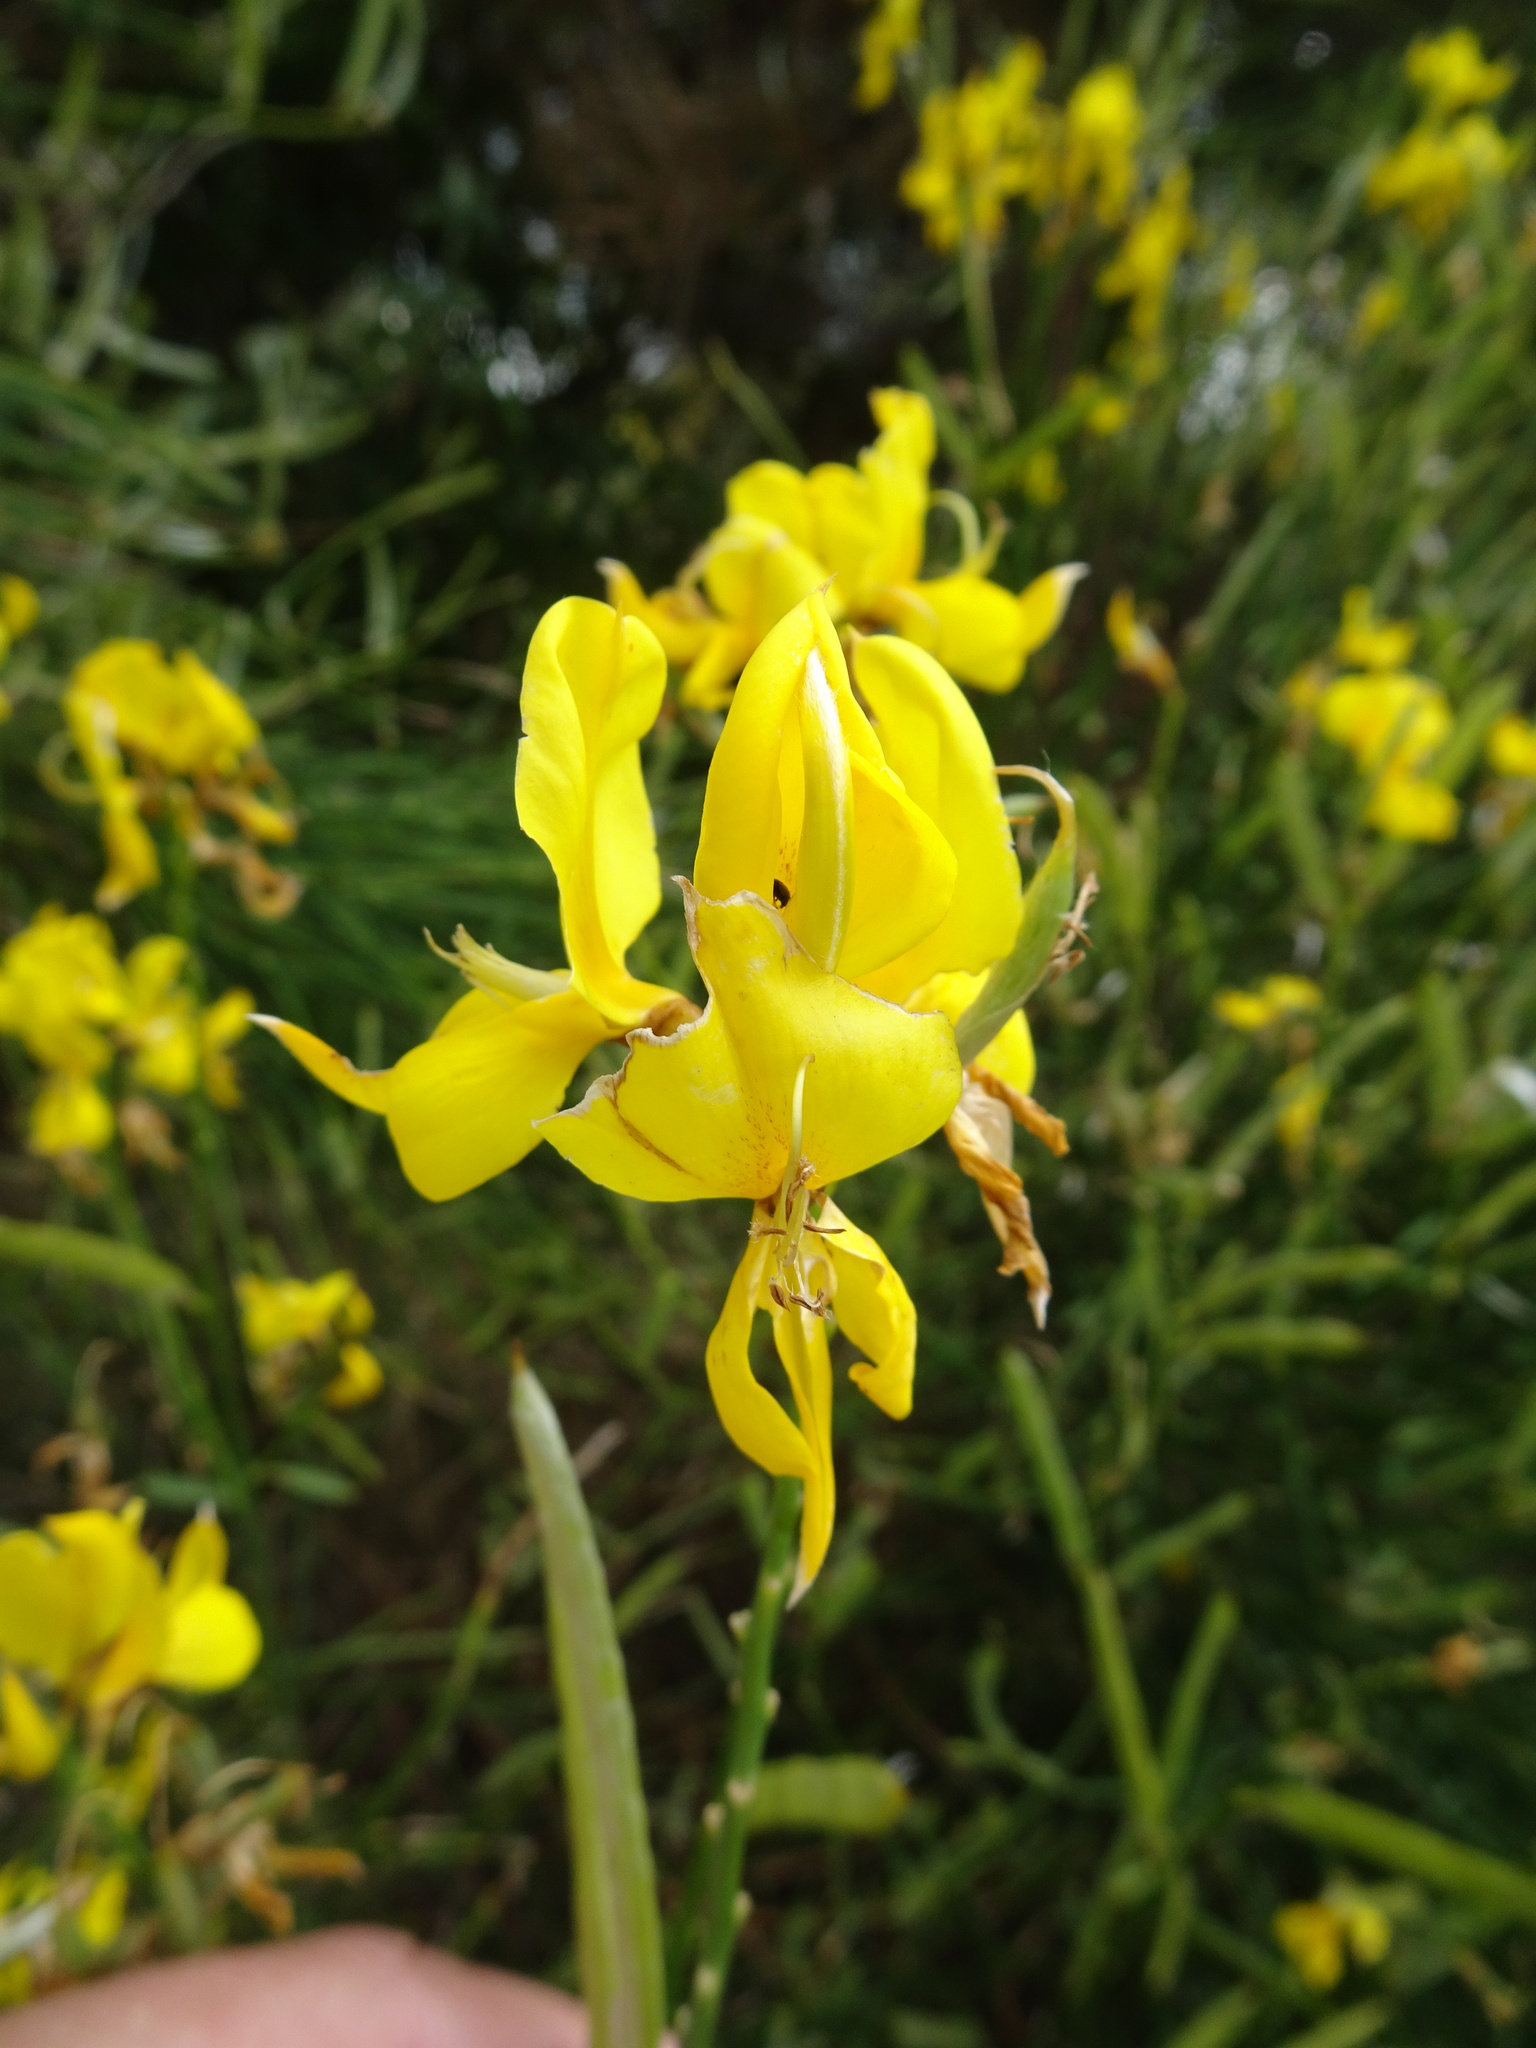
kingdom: Plantae
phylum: Tracheophyta
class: Magnoliopsida
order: Fabales
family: Fabaceae
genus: Spartium
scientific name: Spartium junceum
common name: Spanish broom
